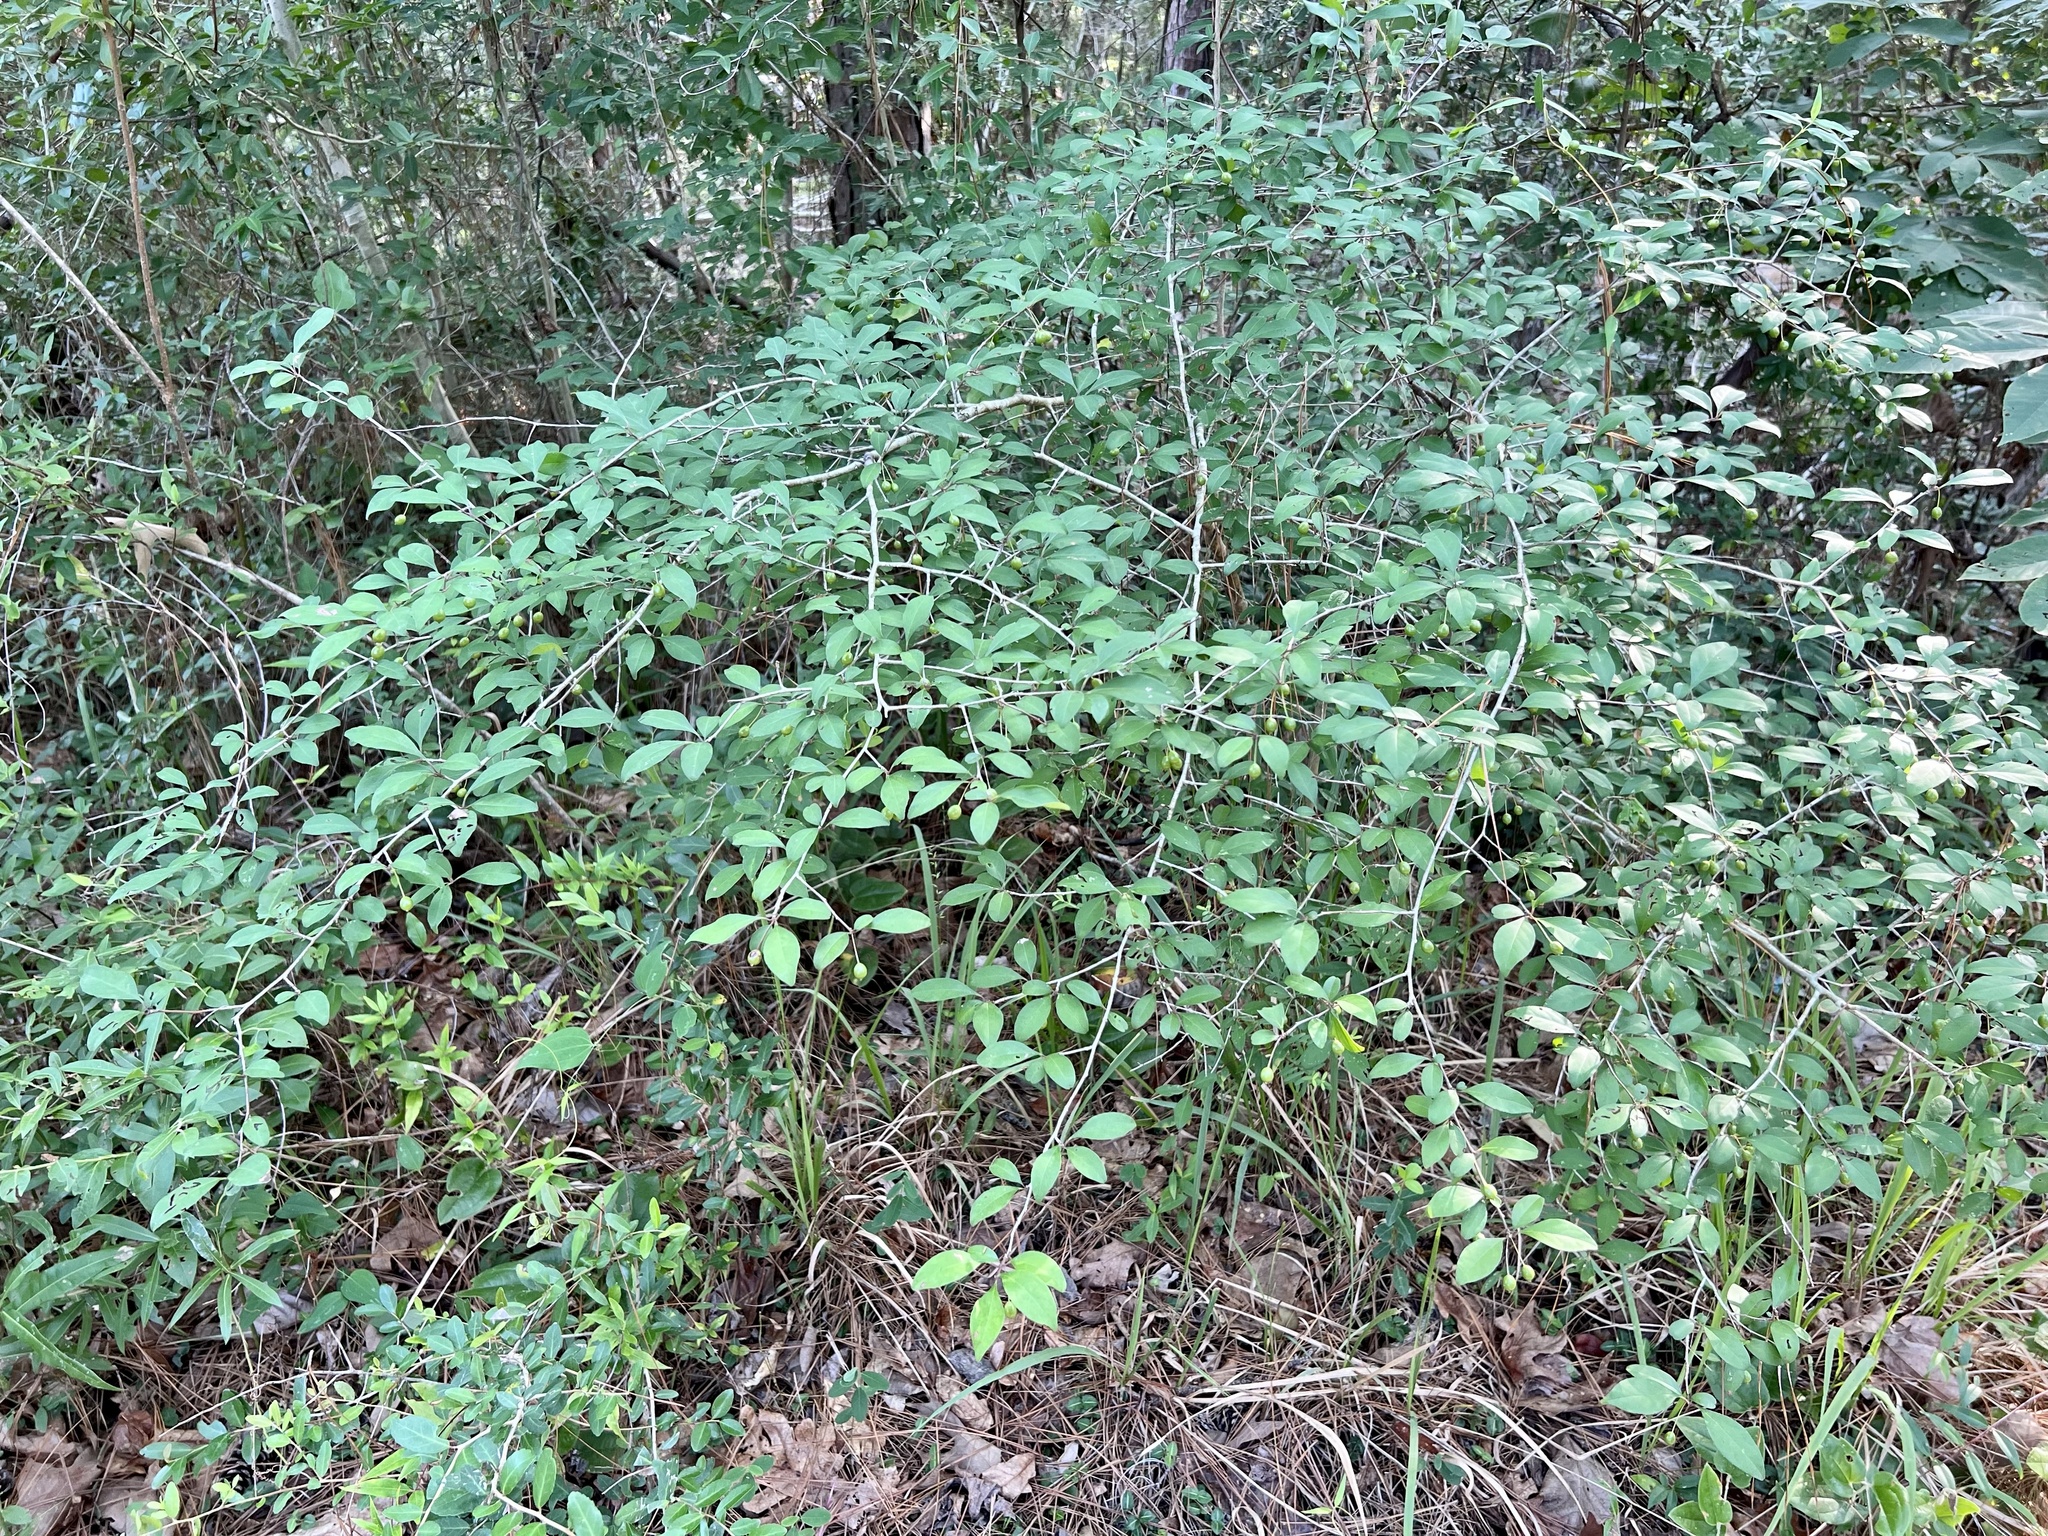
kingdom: Plantae
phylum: Tracheophyta
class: Magnoliopsida
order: Aquifoliales
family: Aquifoliaceae
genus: Ilex
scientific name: Ilex longipes
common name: Georgia holly
